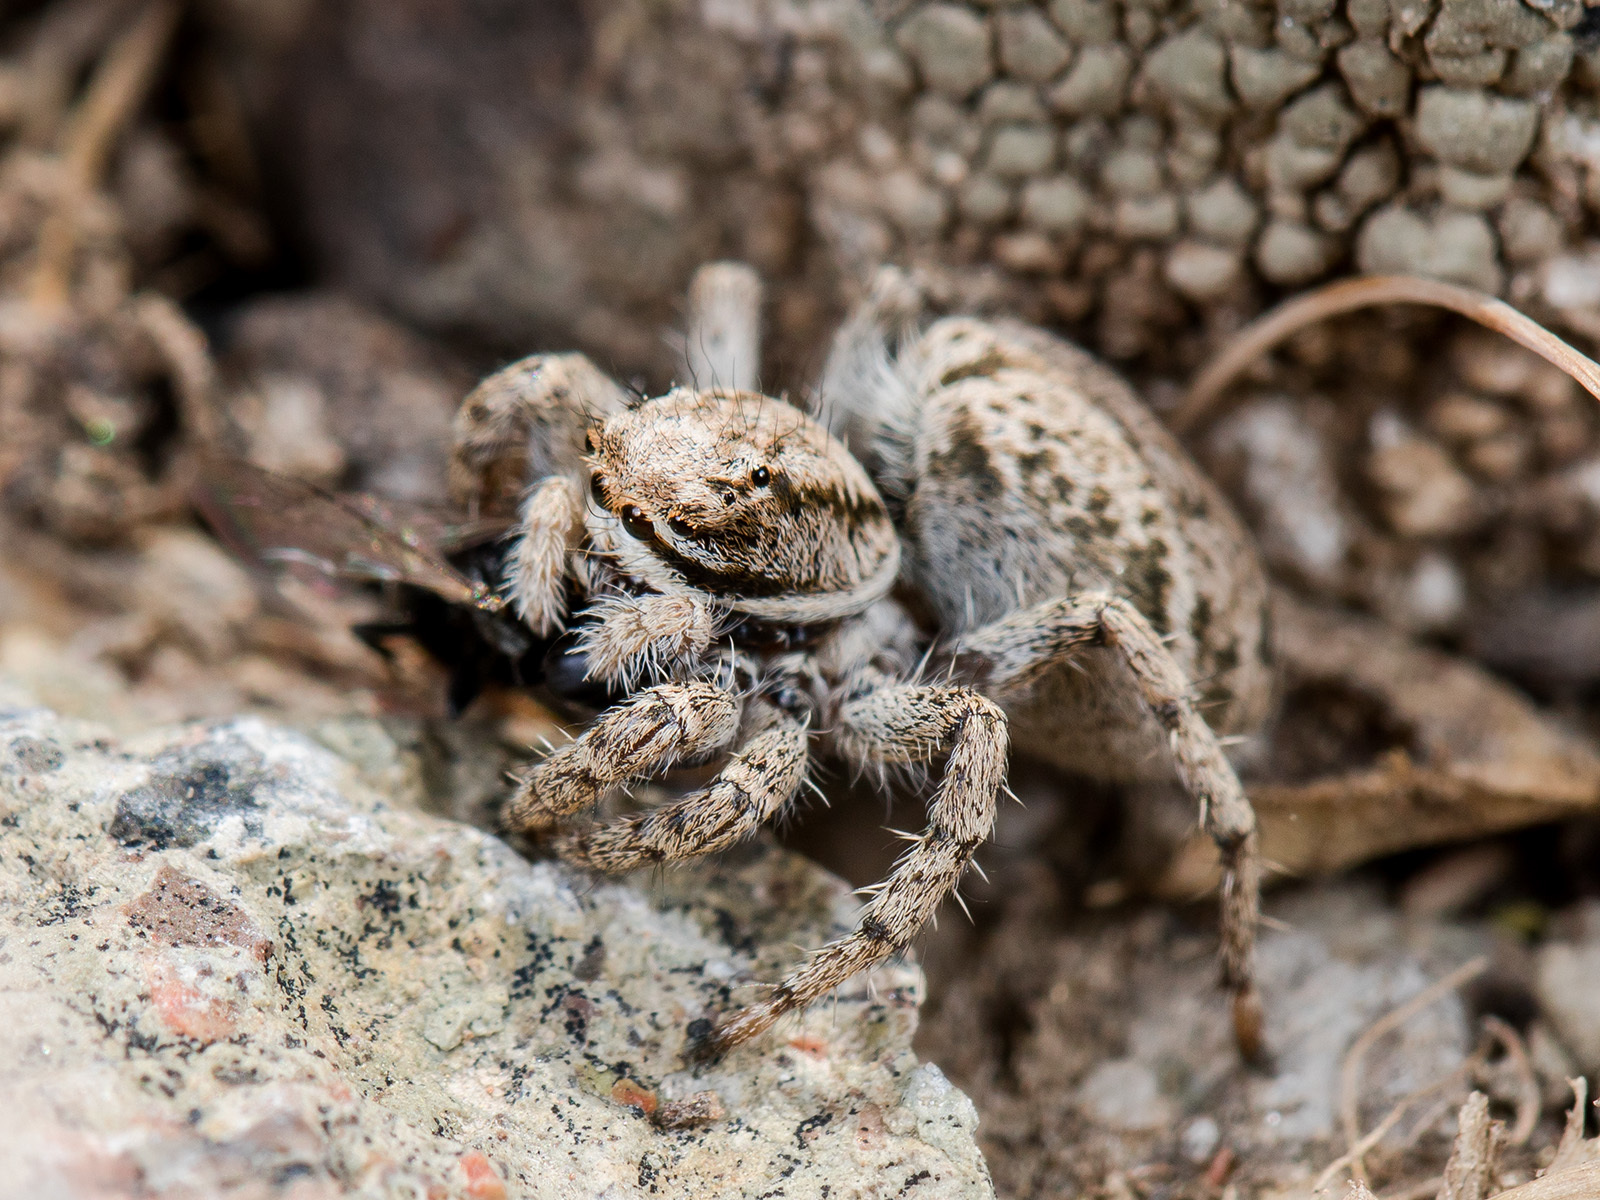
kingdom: Animalia
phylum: Arthropoda
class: Arachnida
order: Araneae
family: Salticidae
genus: Rafalus
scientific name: Rafalus variegatus
